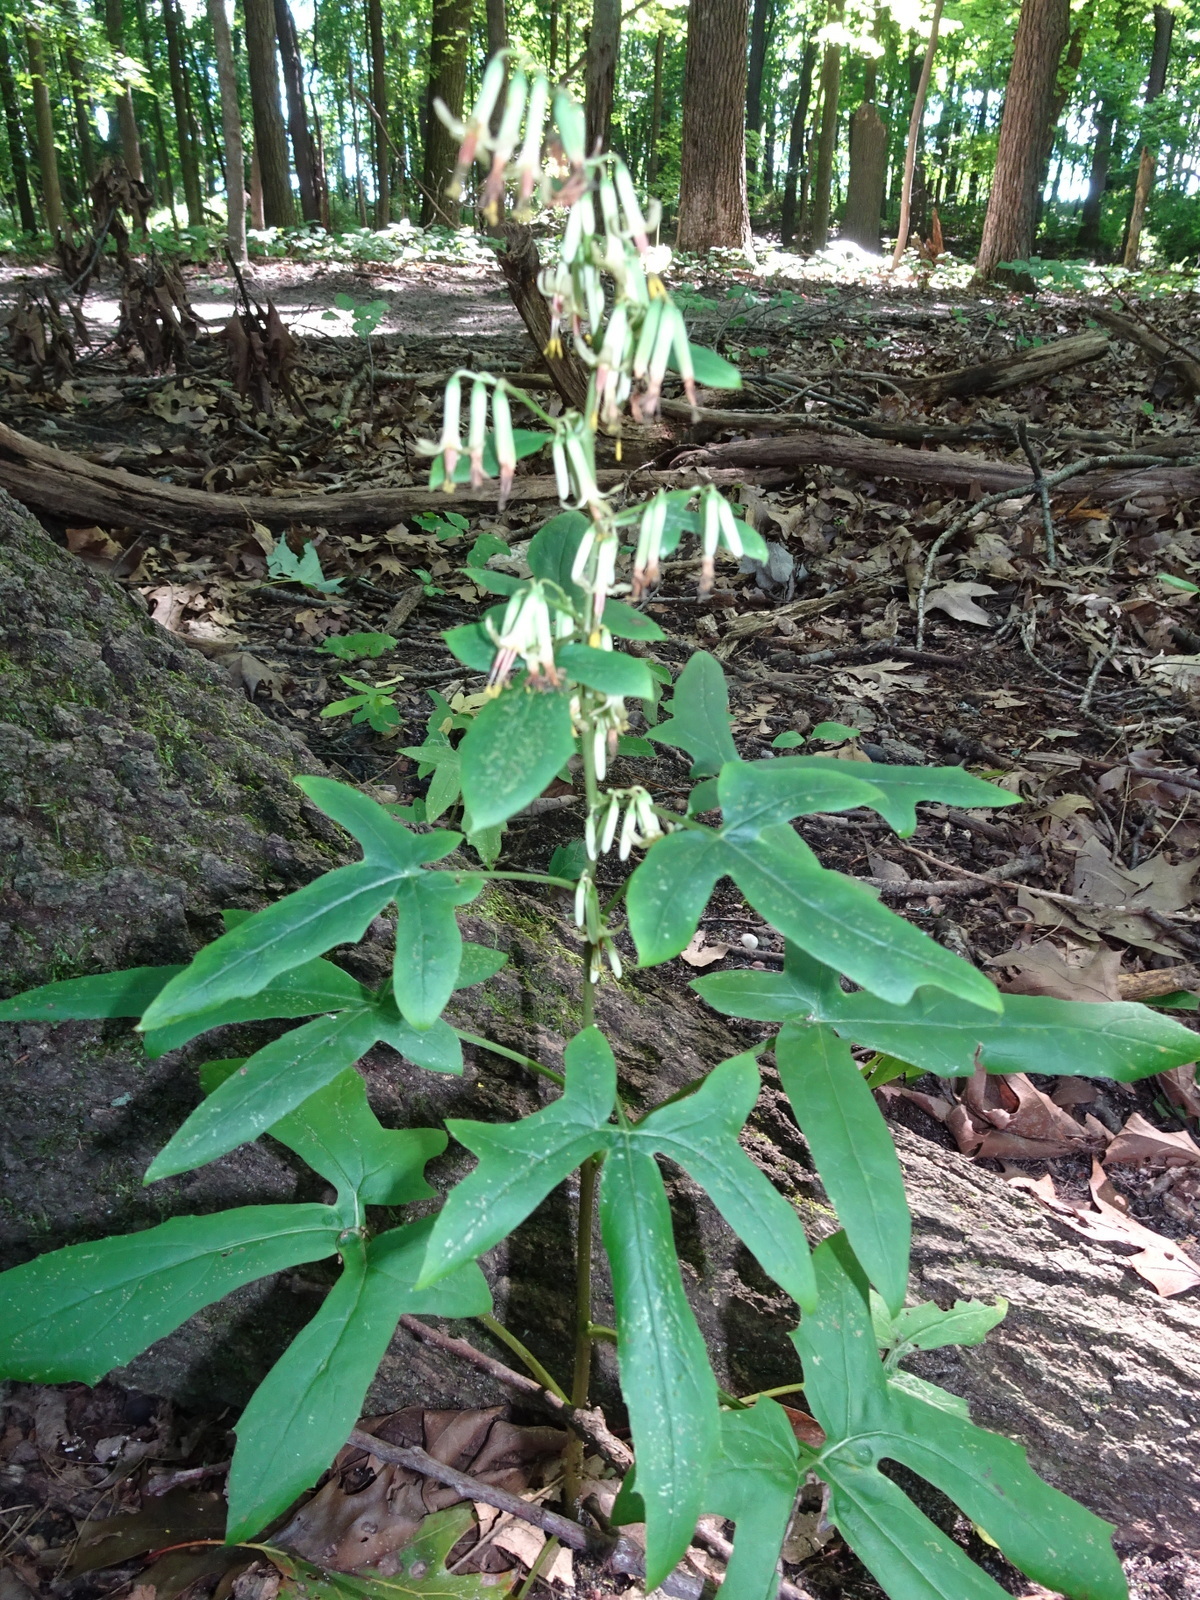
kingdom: Plantae
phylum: Tracheophyta
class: Magnoliopsida
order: Asterales
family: Asteraceae
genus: Nabalus
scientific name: Nabalus altissima
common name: Tall rattlesnakeroot
